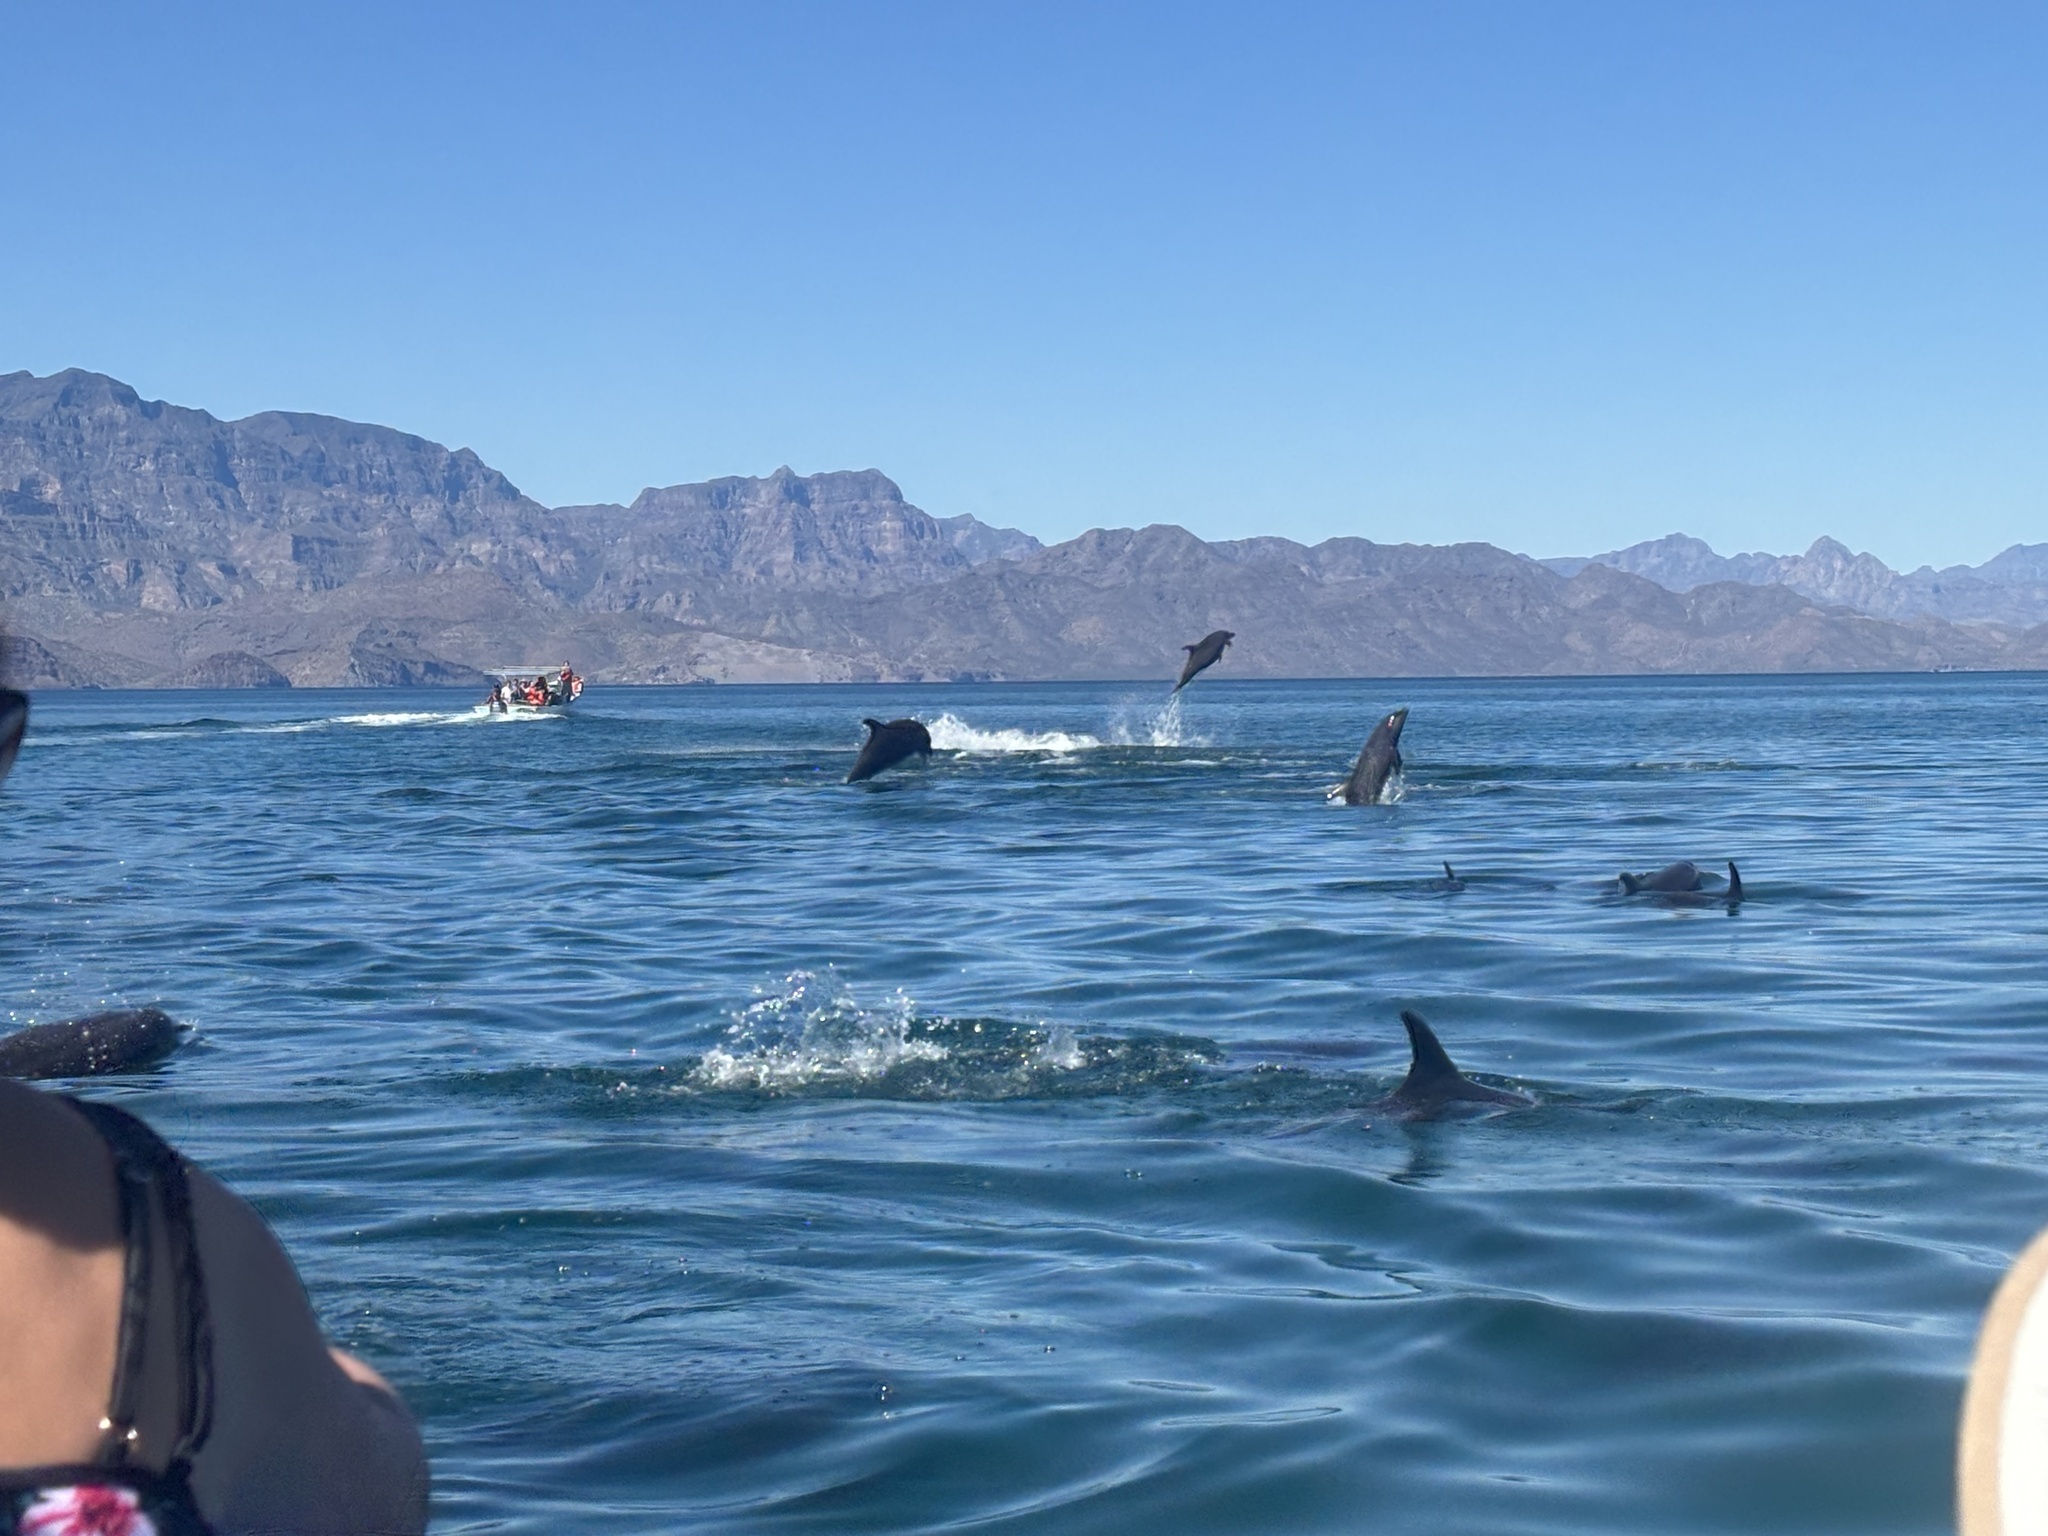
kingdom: Animalia
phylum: Chordata
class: Mammalia
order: Cetacea
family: Delphinidae
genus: Tursiops
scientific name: Tursiops truncatus
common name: Bottlenose dolphin
